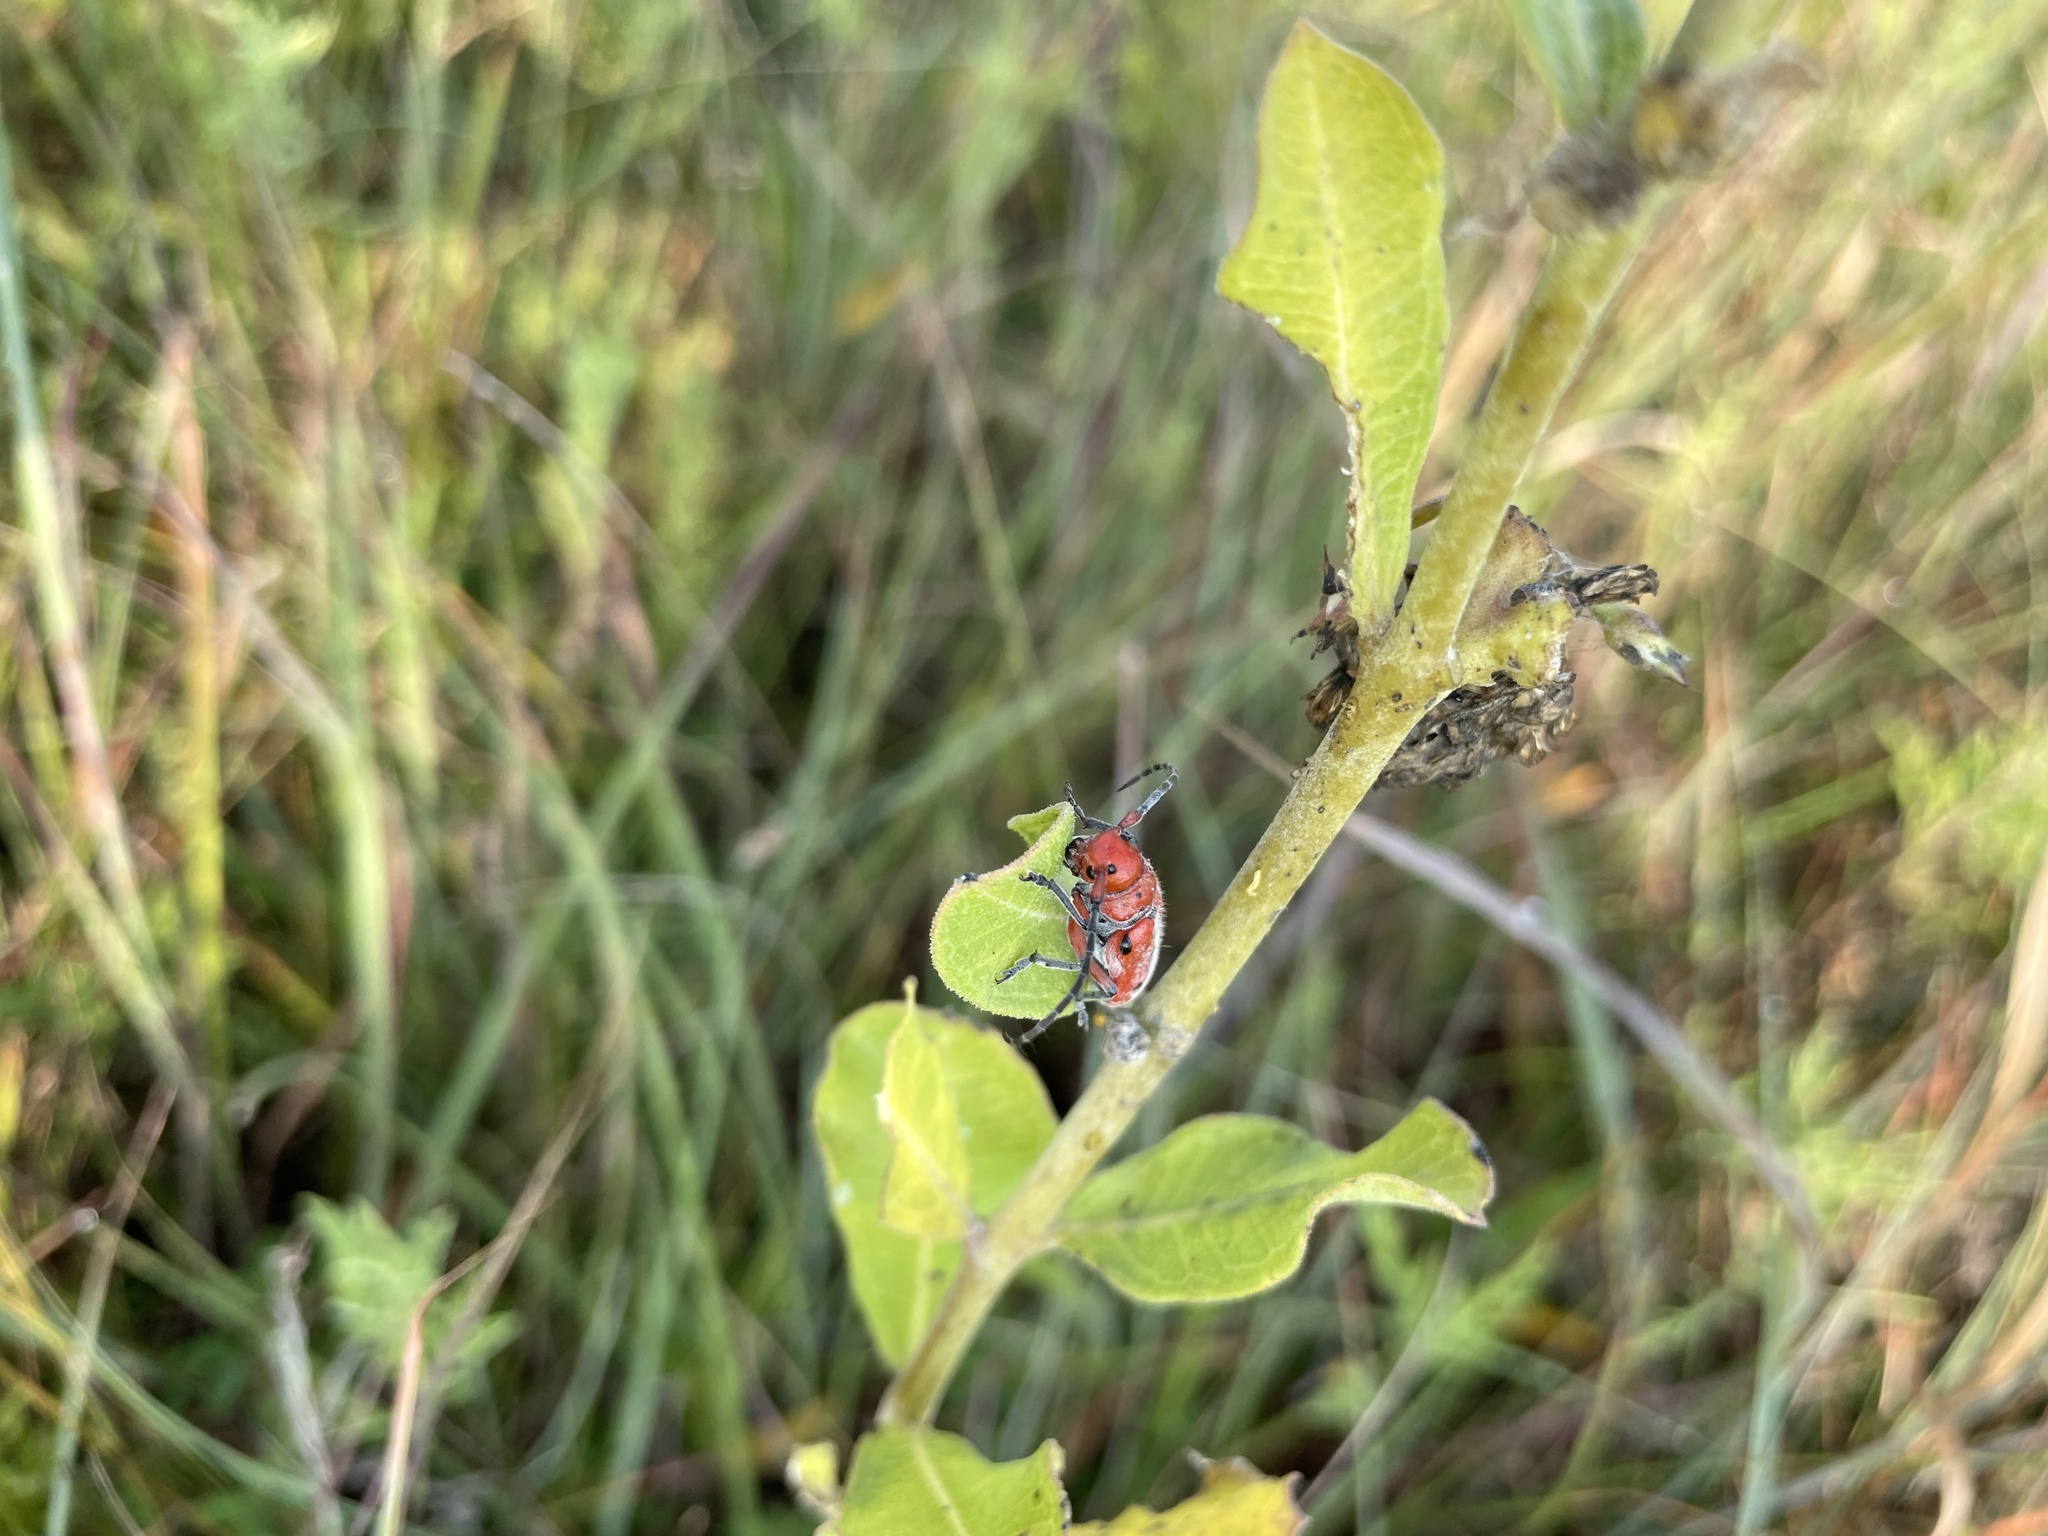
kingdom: Animalia
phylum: Arthropoda
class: Insecta
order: Coleoptera
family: Cerambycidae
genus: Tetraopes
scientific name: Tetraopes texanus
